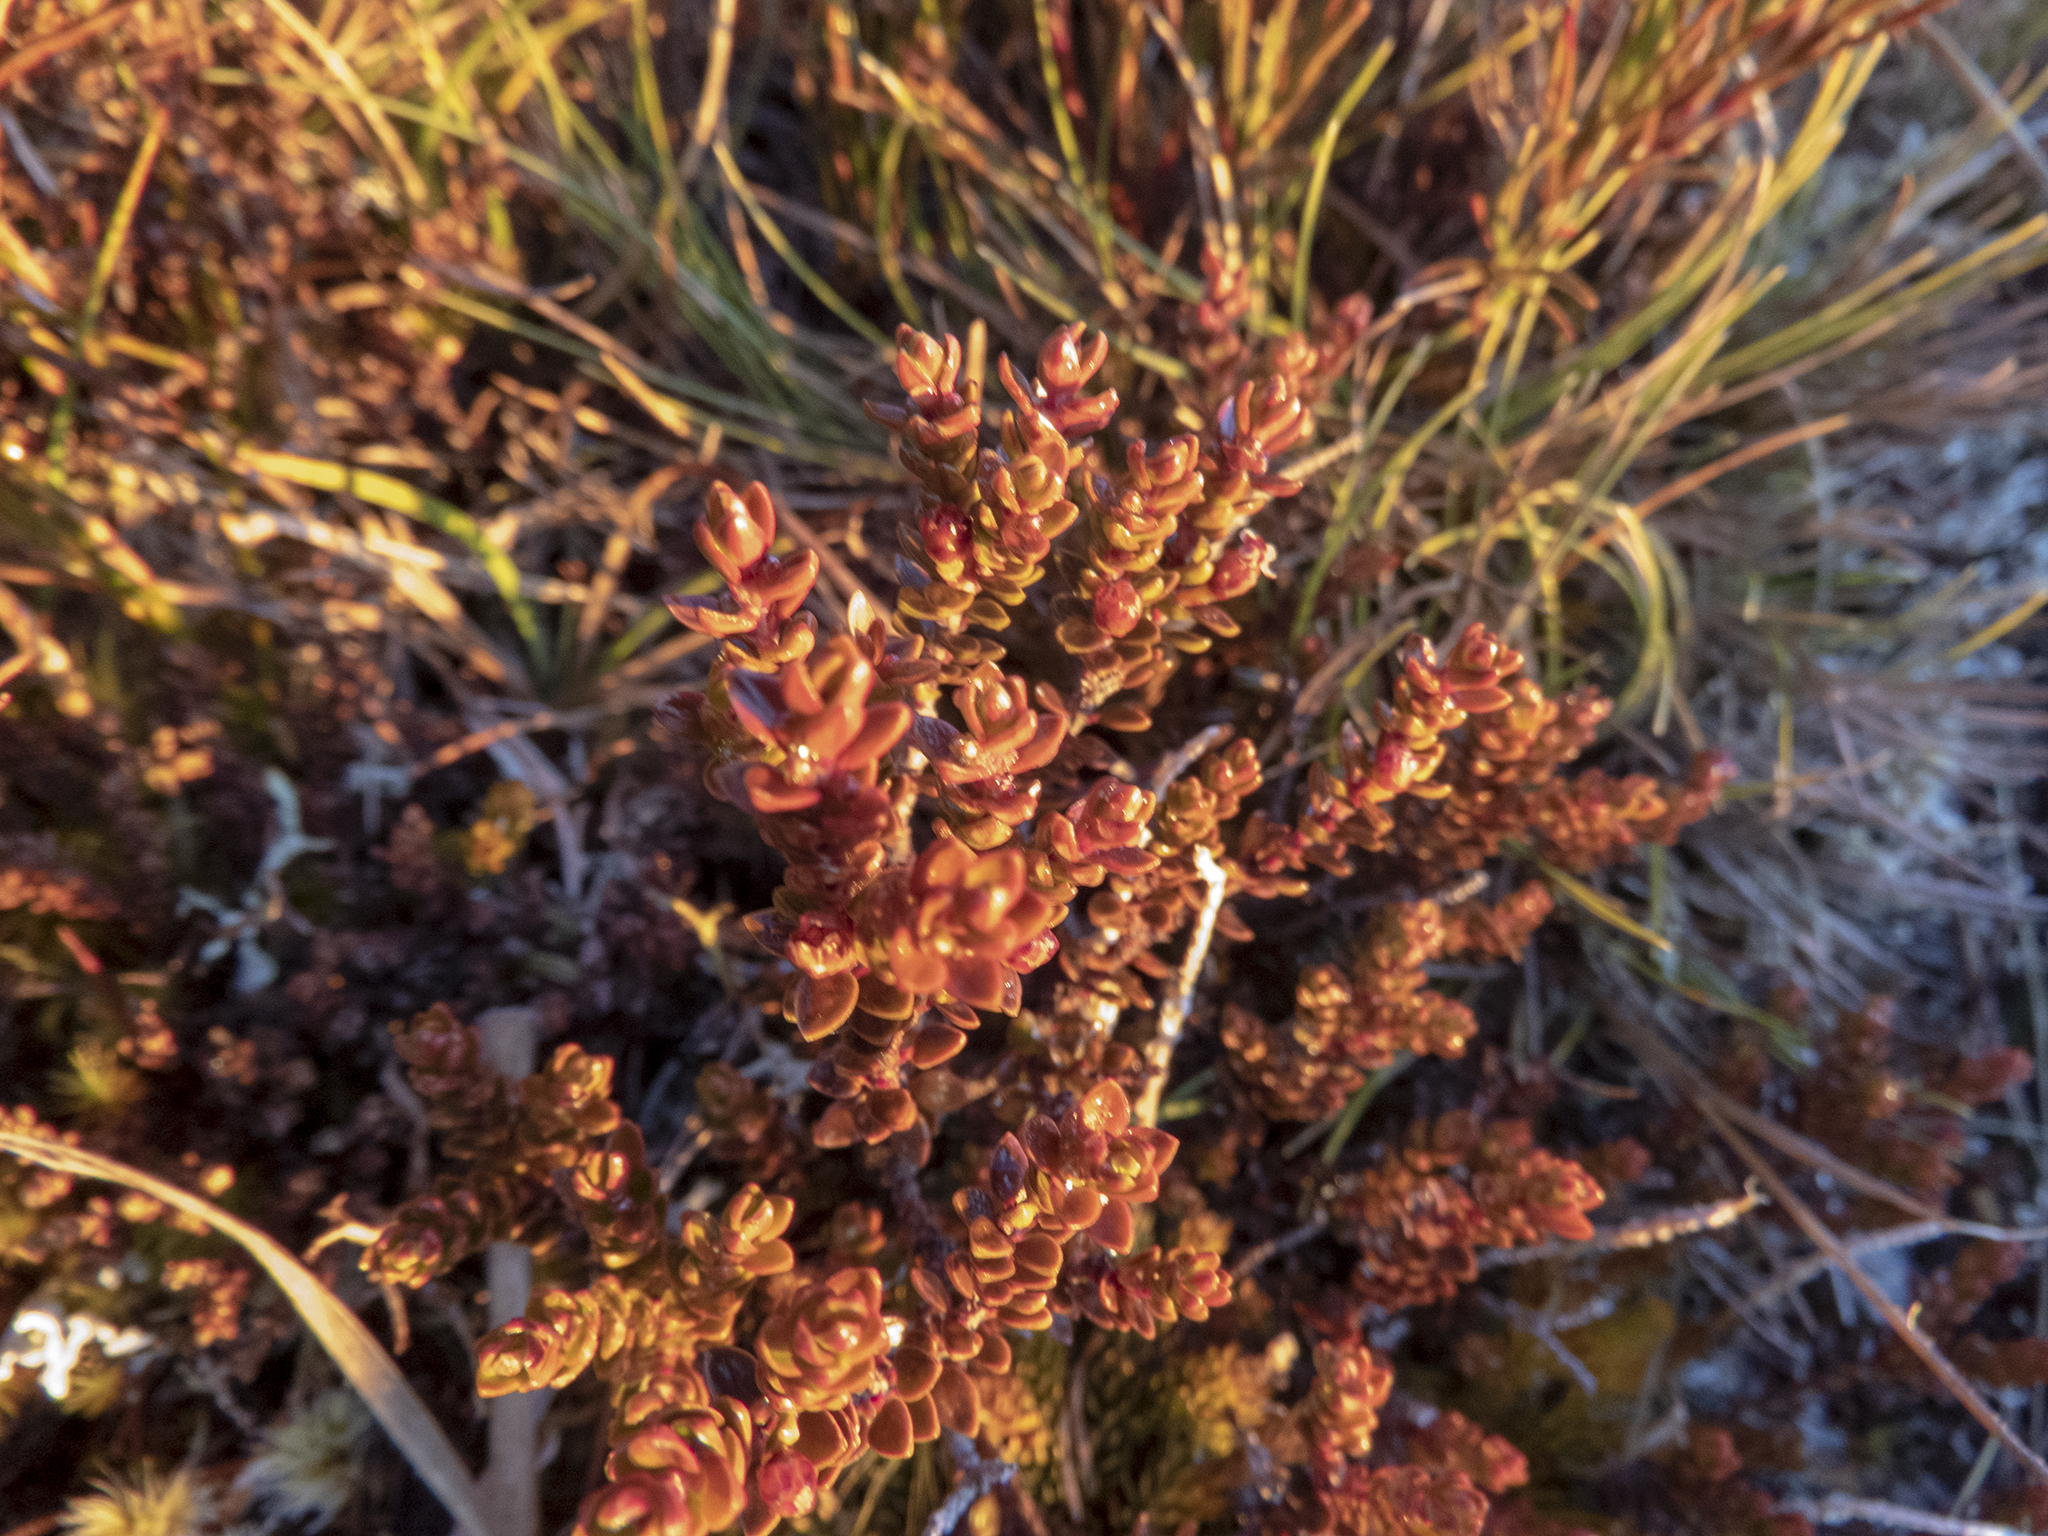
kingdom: Plantae
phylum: Tracheophyta
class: Magnoliopsida
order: Ericales
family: Ericaceae
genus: Epacris
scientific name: Epacris alpina
